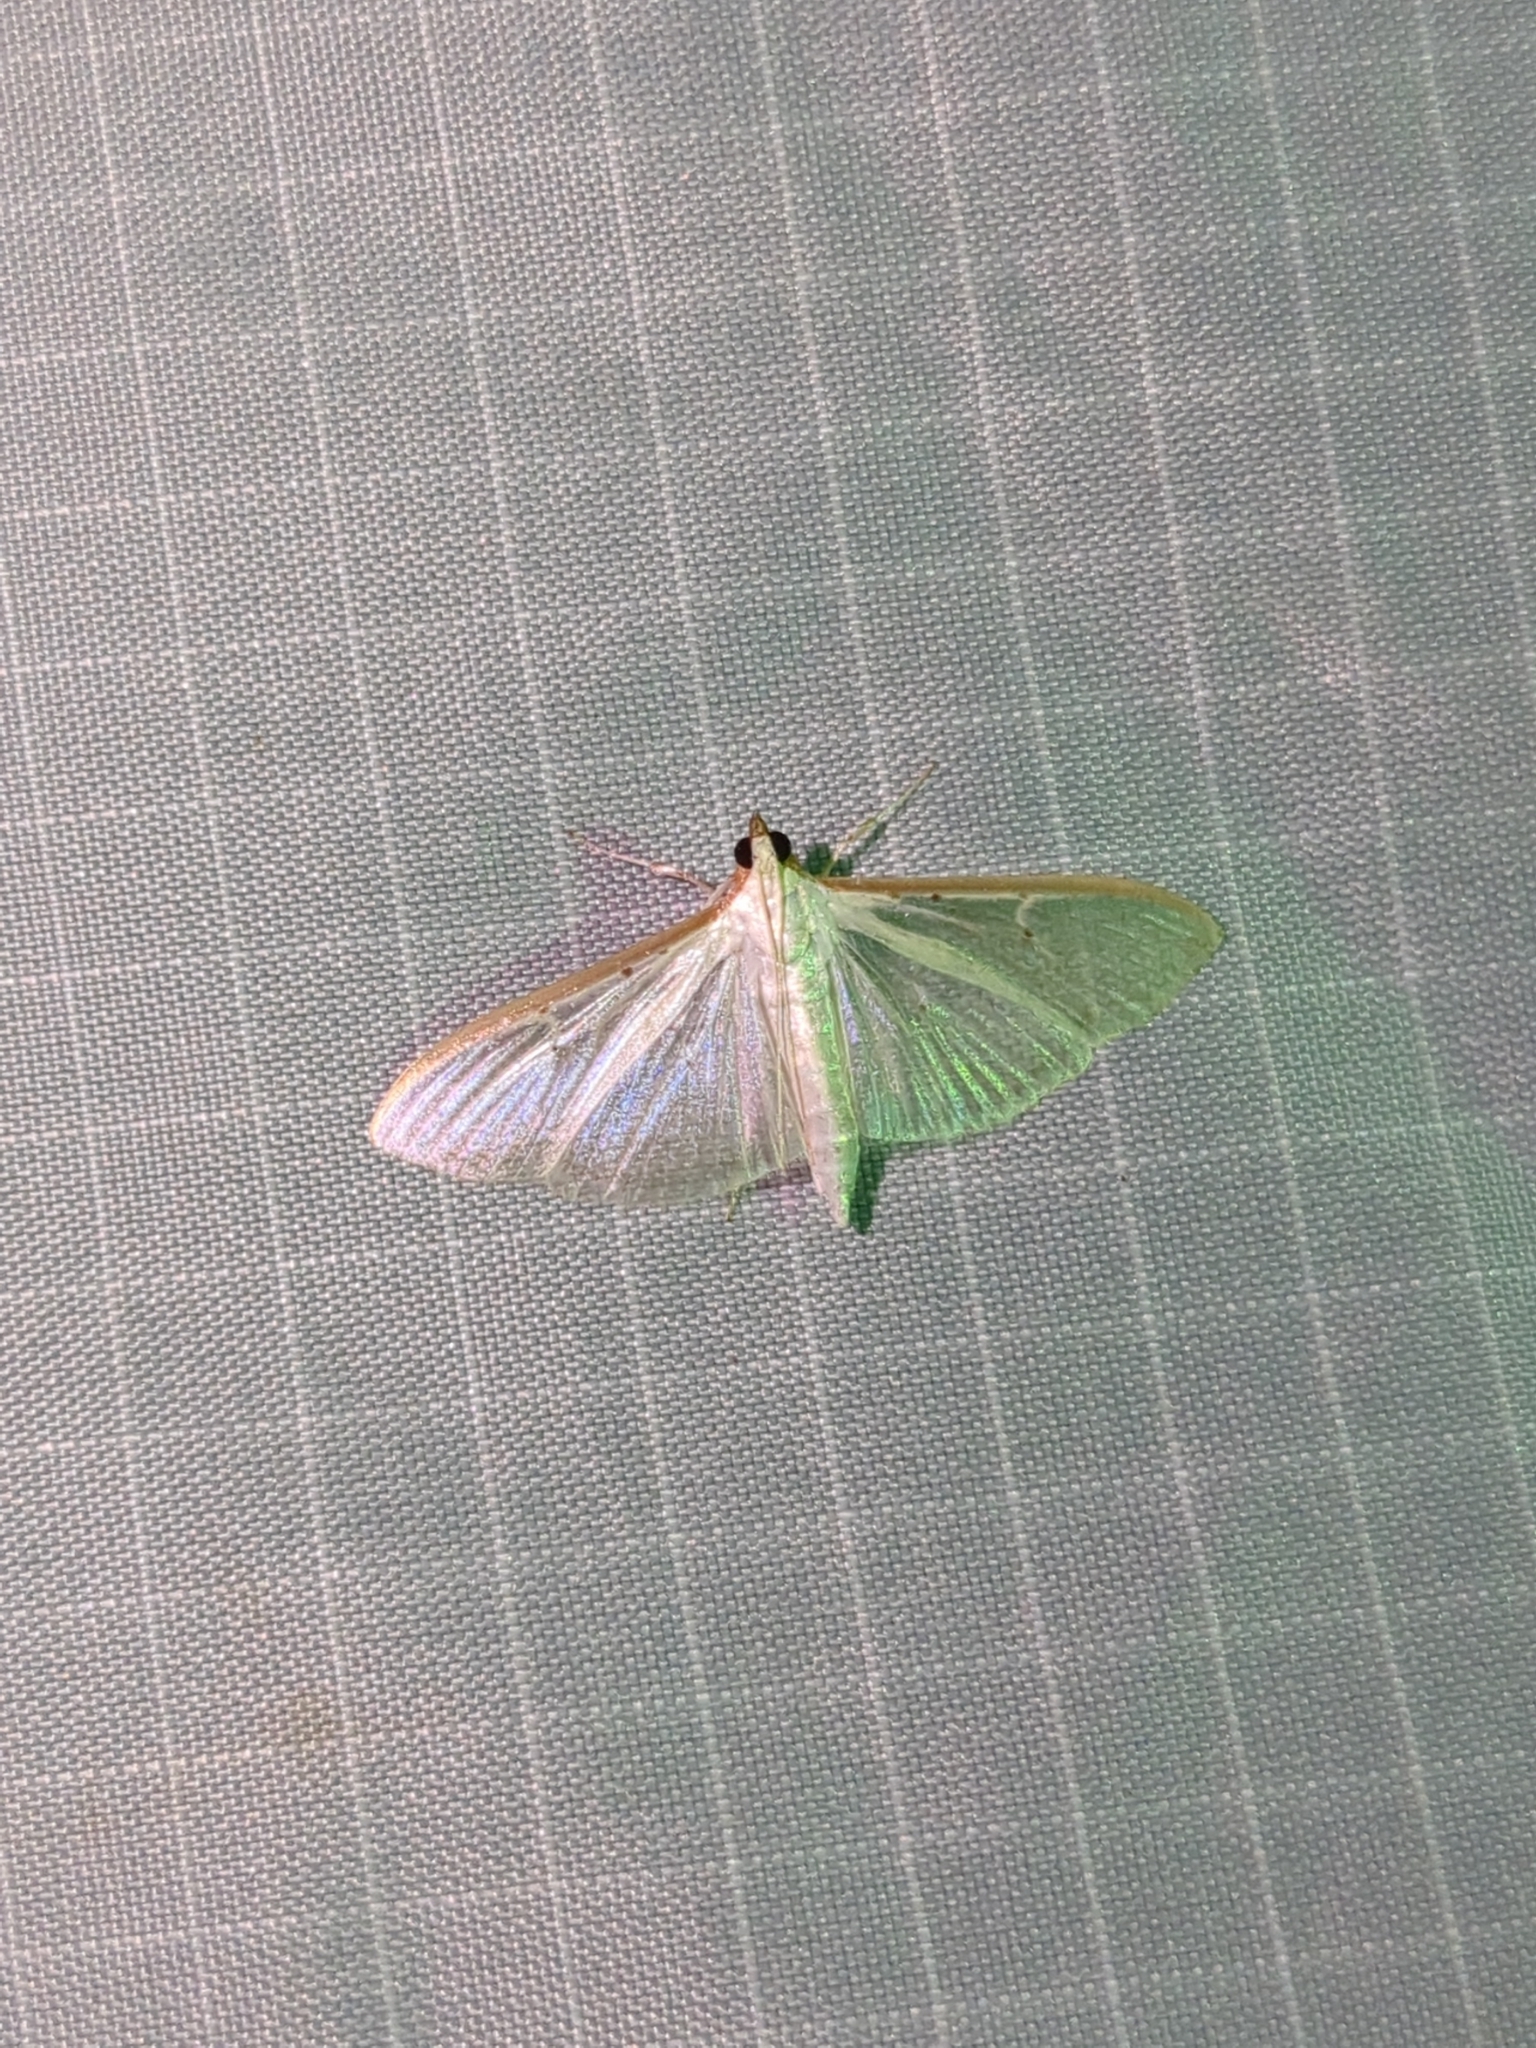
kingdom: Animalia
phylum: Arthropoda
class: Insecta
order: Lepidoptera
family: Crambidae
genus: Palpita
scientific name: Palpita quadristigmalis
